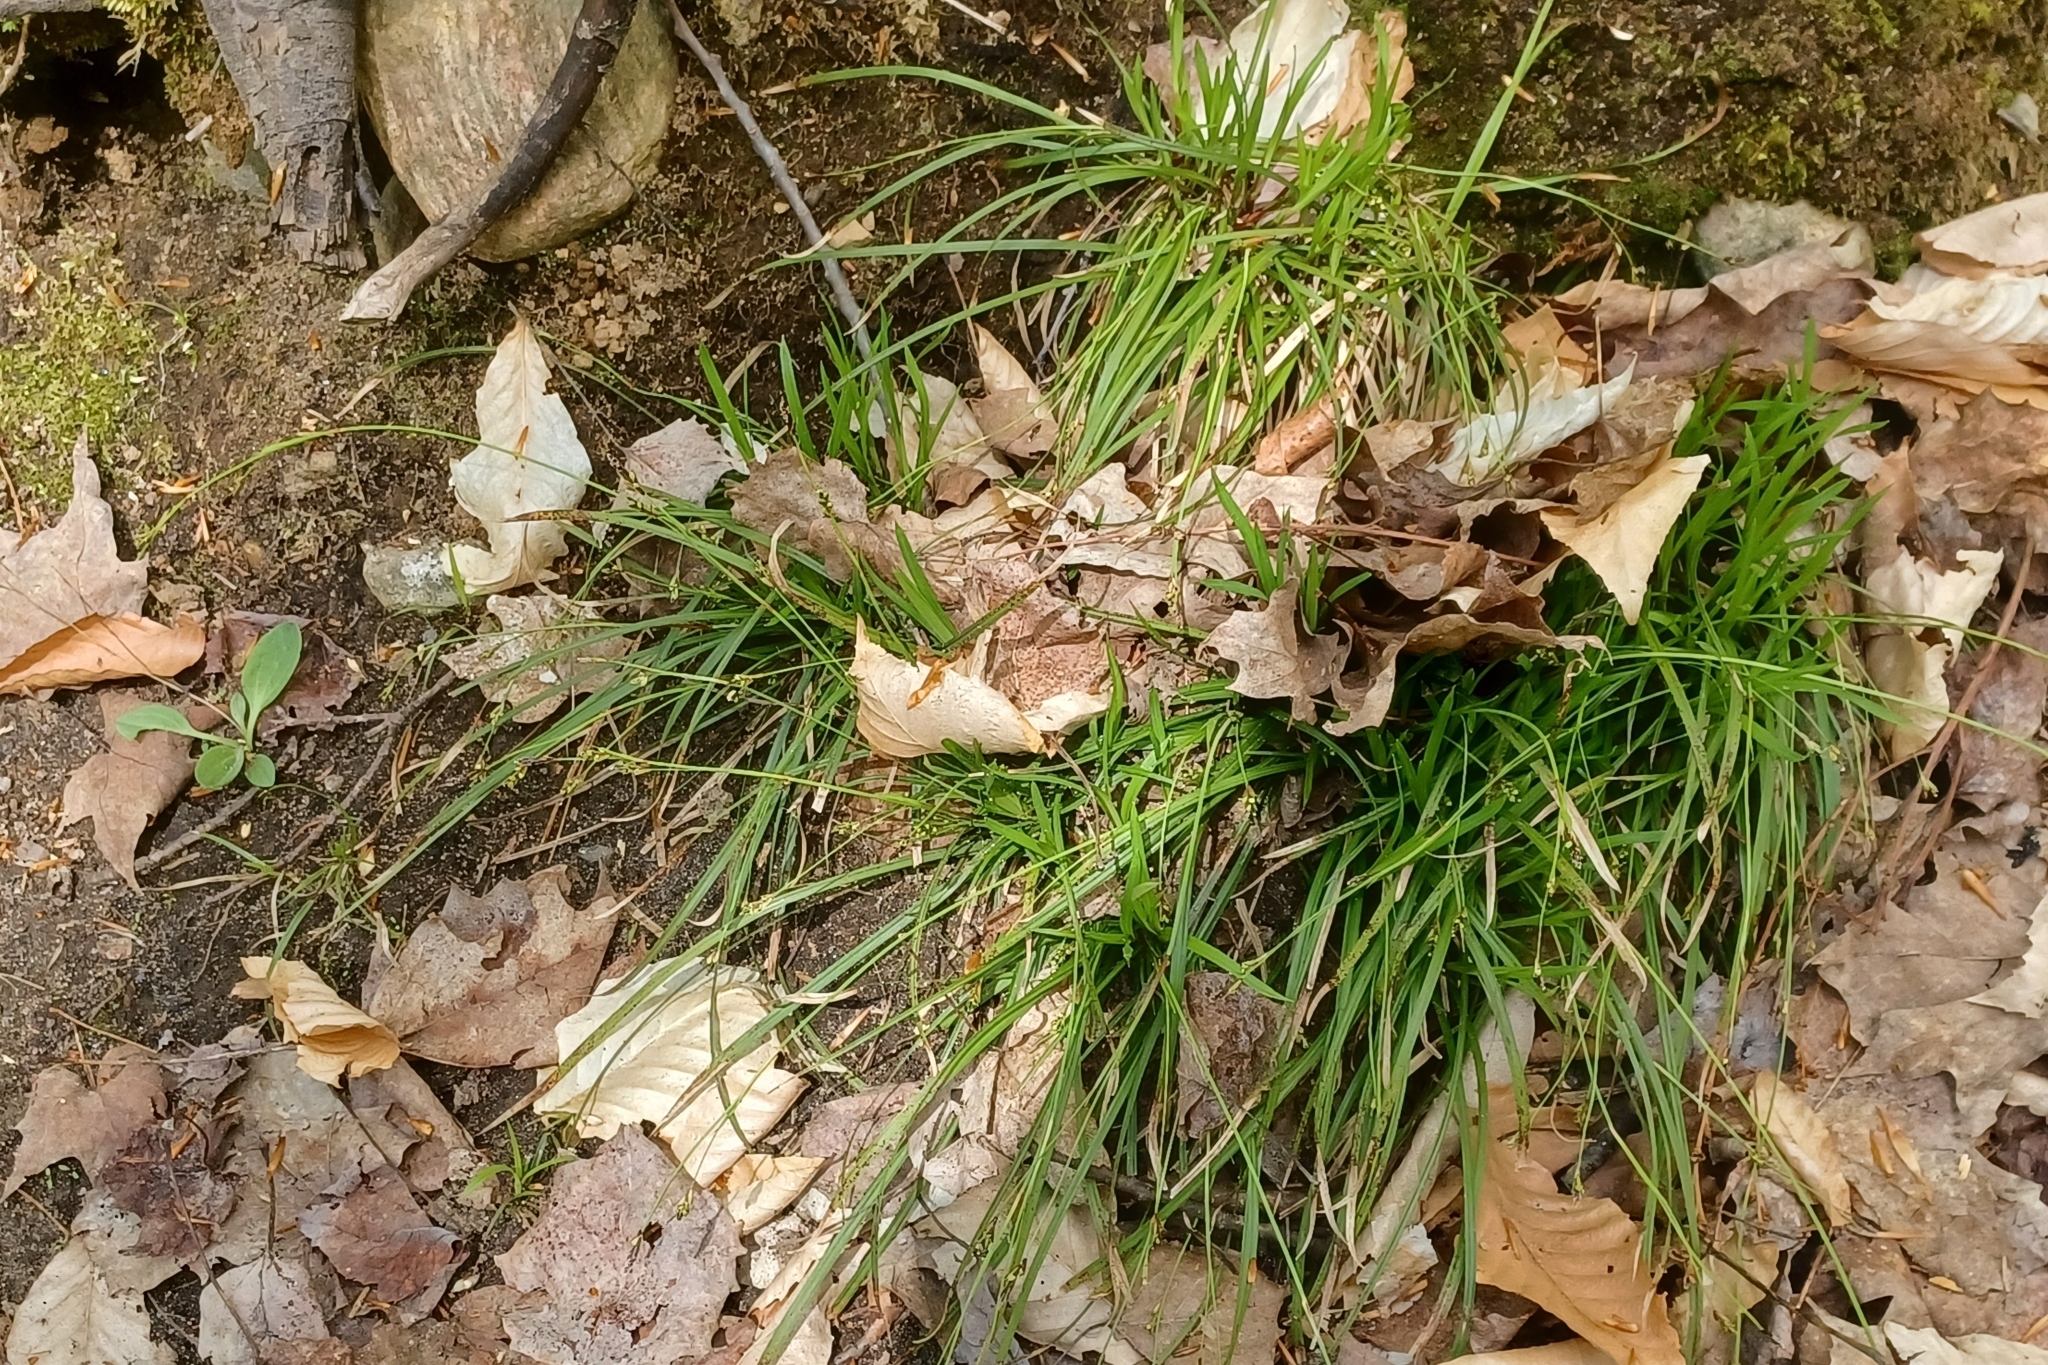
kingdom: Plantae
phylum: Tracheophyta
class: Liliopsida
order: Poales
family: Cyperaceae
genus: Carex
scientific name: Carex pedunculata
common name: Pedunculate sedge
